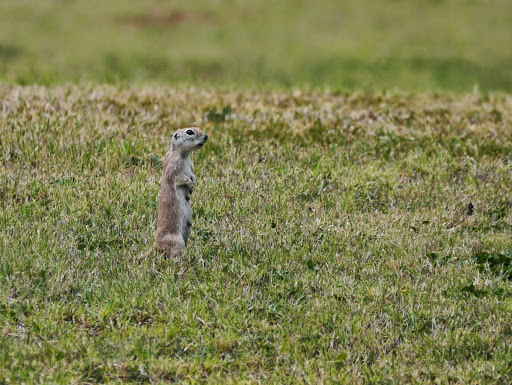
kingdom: Animalia
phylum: Chordata
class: Mammalia
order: Rodentia
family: Sciuridae
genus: Xerospermophilus
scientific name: Xerospermophilus tereticaudus
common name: Round-tailed ground squirrel
